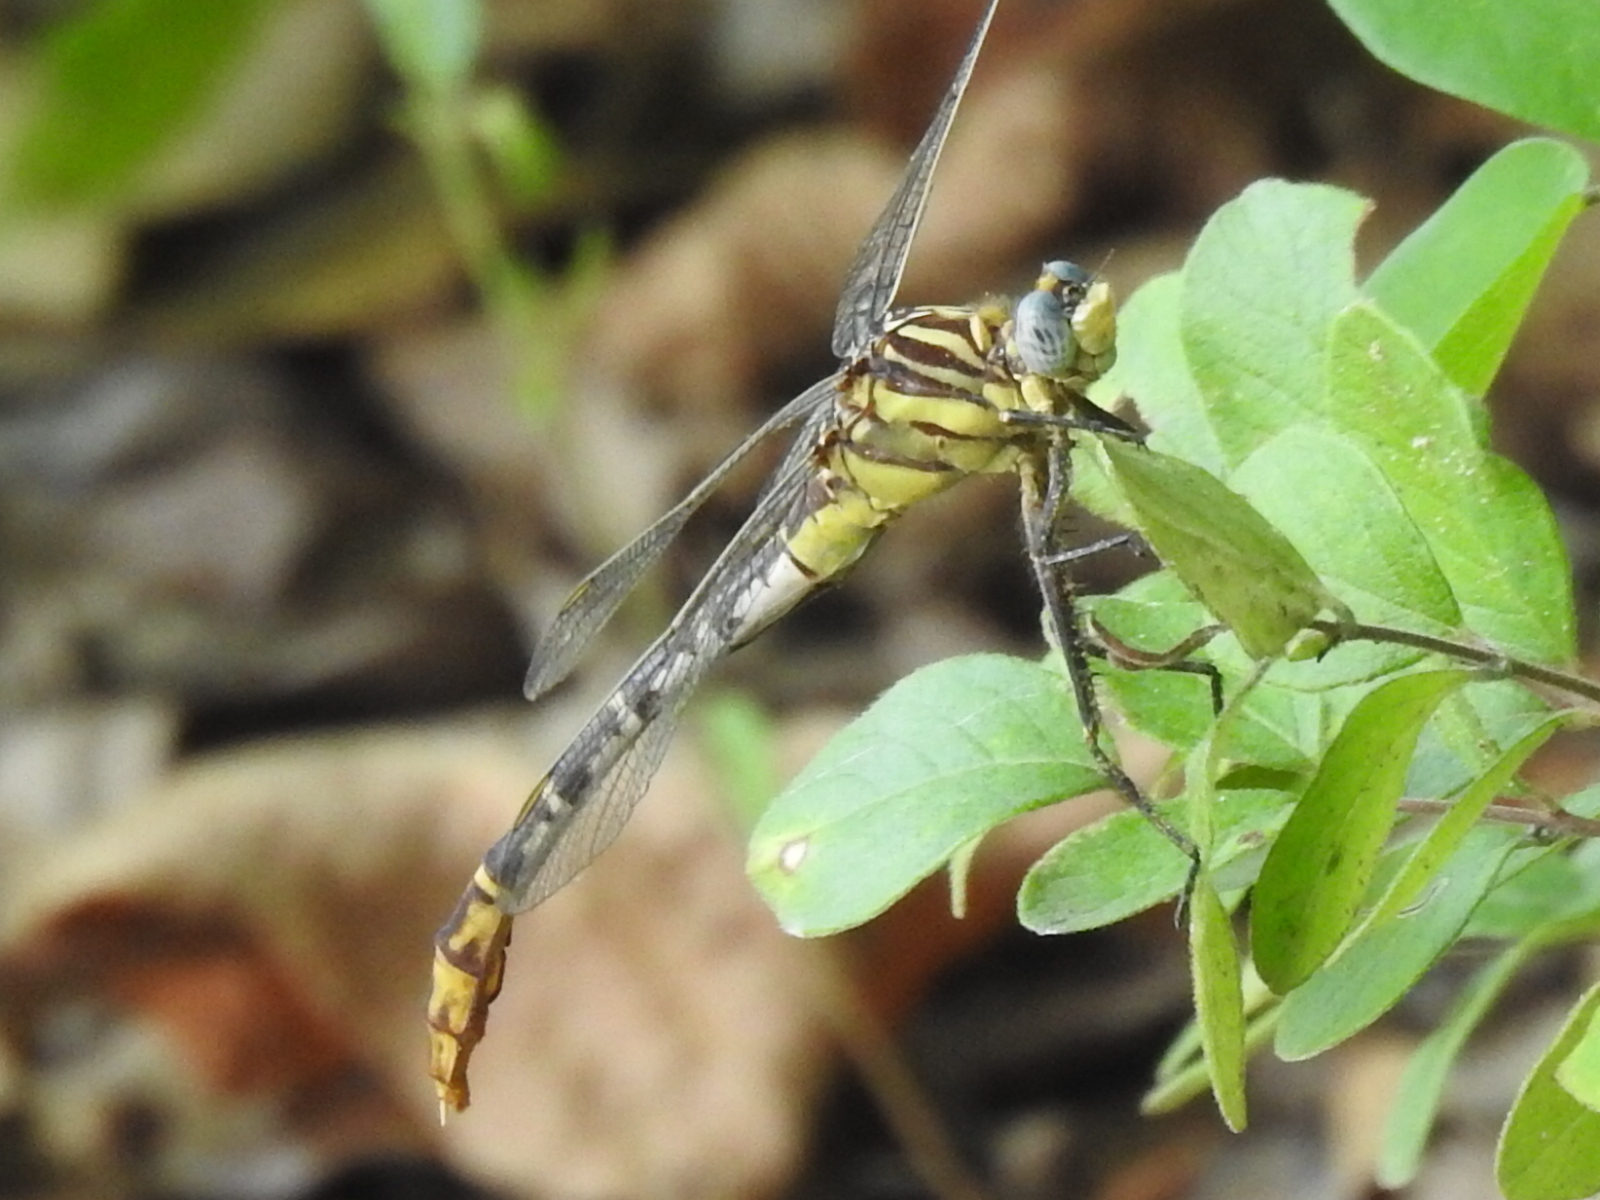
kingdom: Animalia
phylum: Arthropoda
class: Insecta
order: Odonata
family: Gomphidae
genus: Dromogomphus
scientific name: Dromogomphus spoliatus
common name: Flag-tailed spinyleg
